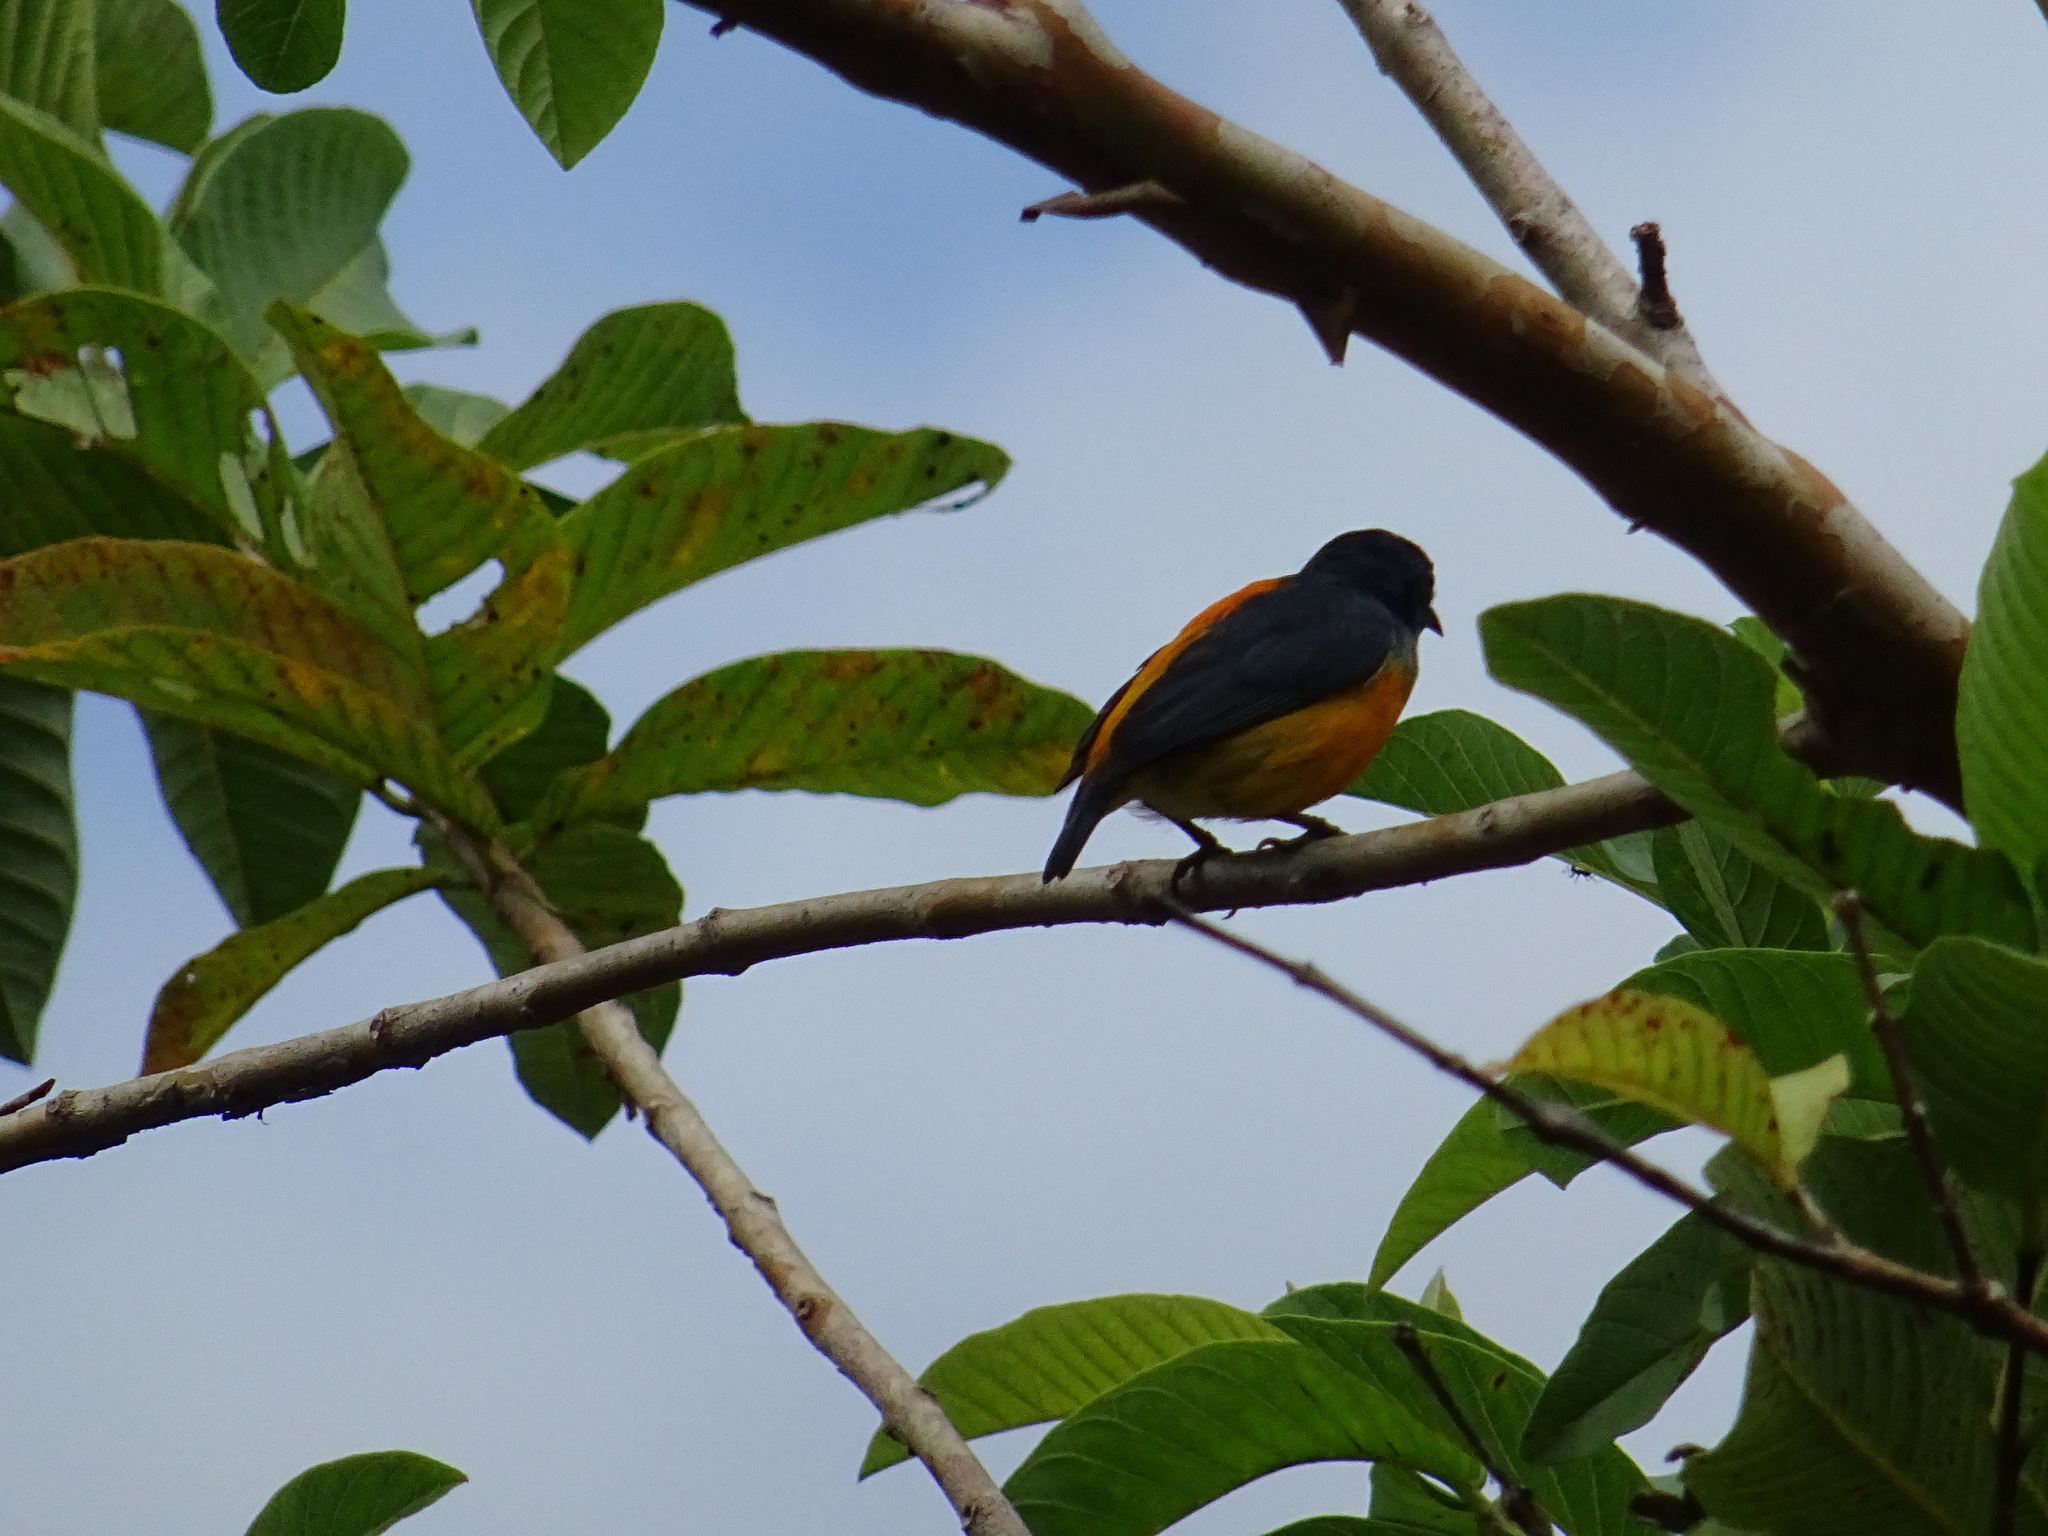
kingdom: Animalia
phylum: Chordata
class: Aves
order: Passeriformes
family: Dicaeidae
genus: Dicaeum
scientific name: Dicaeum trigonostigma
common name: Orange-bellied flowerpecker
